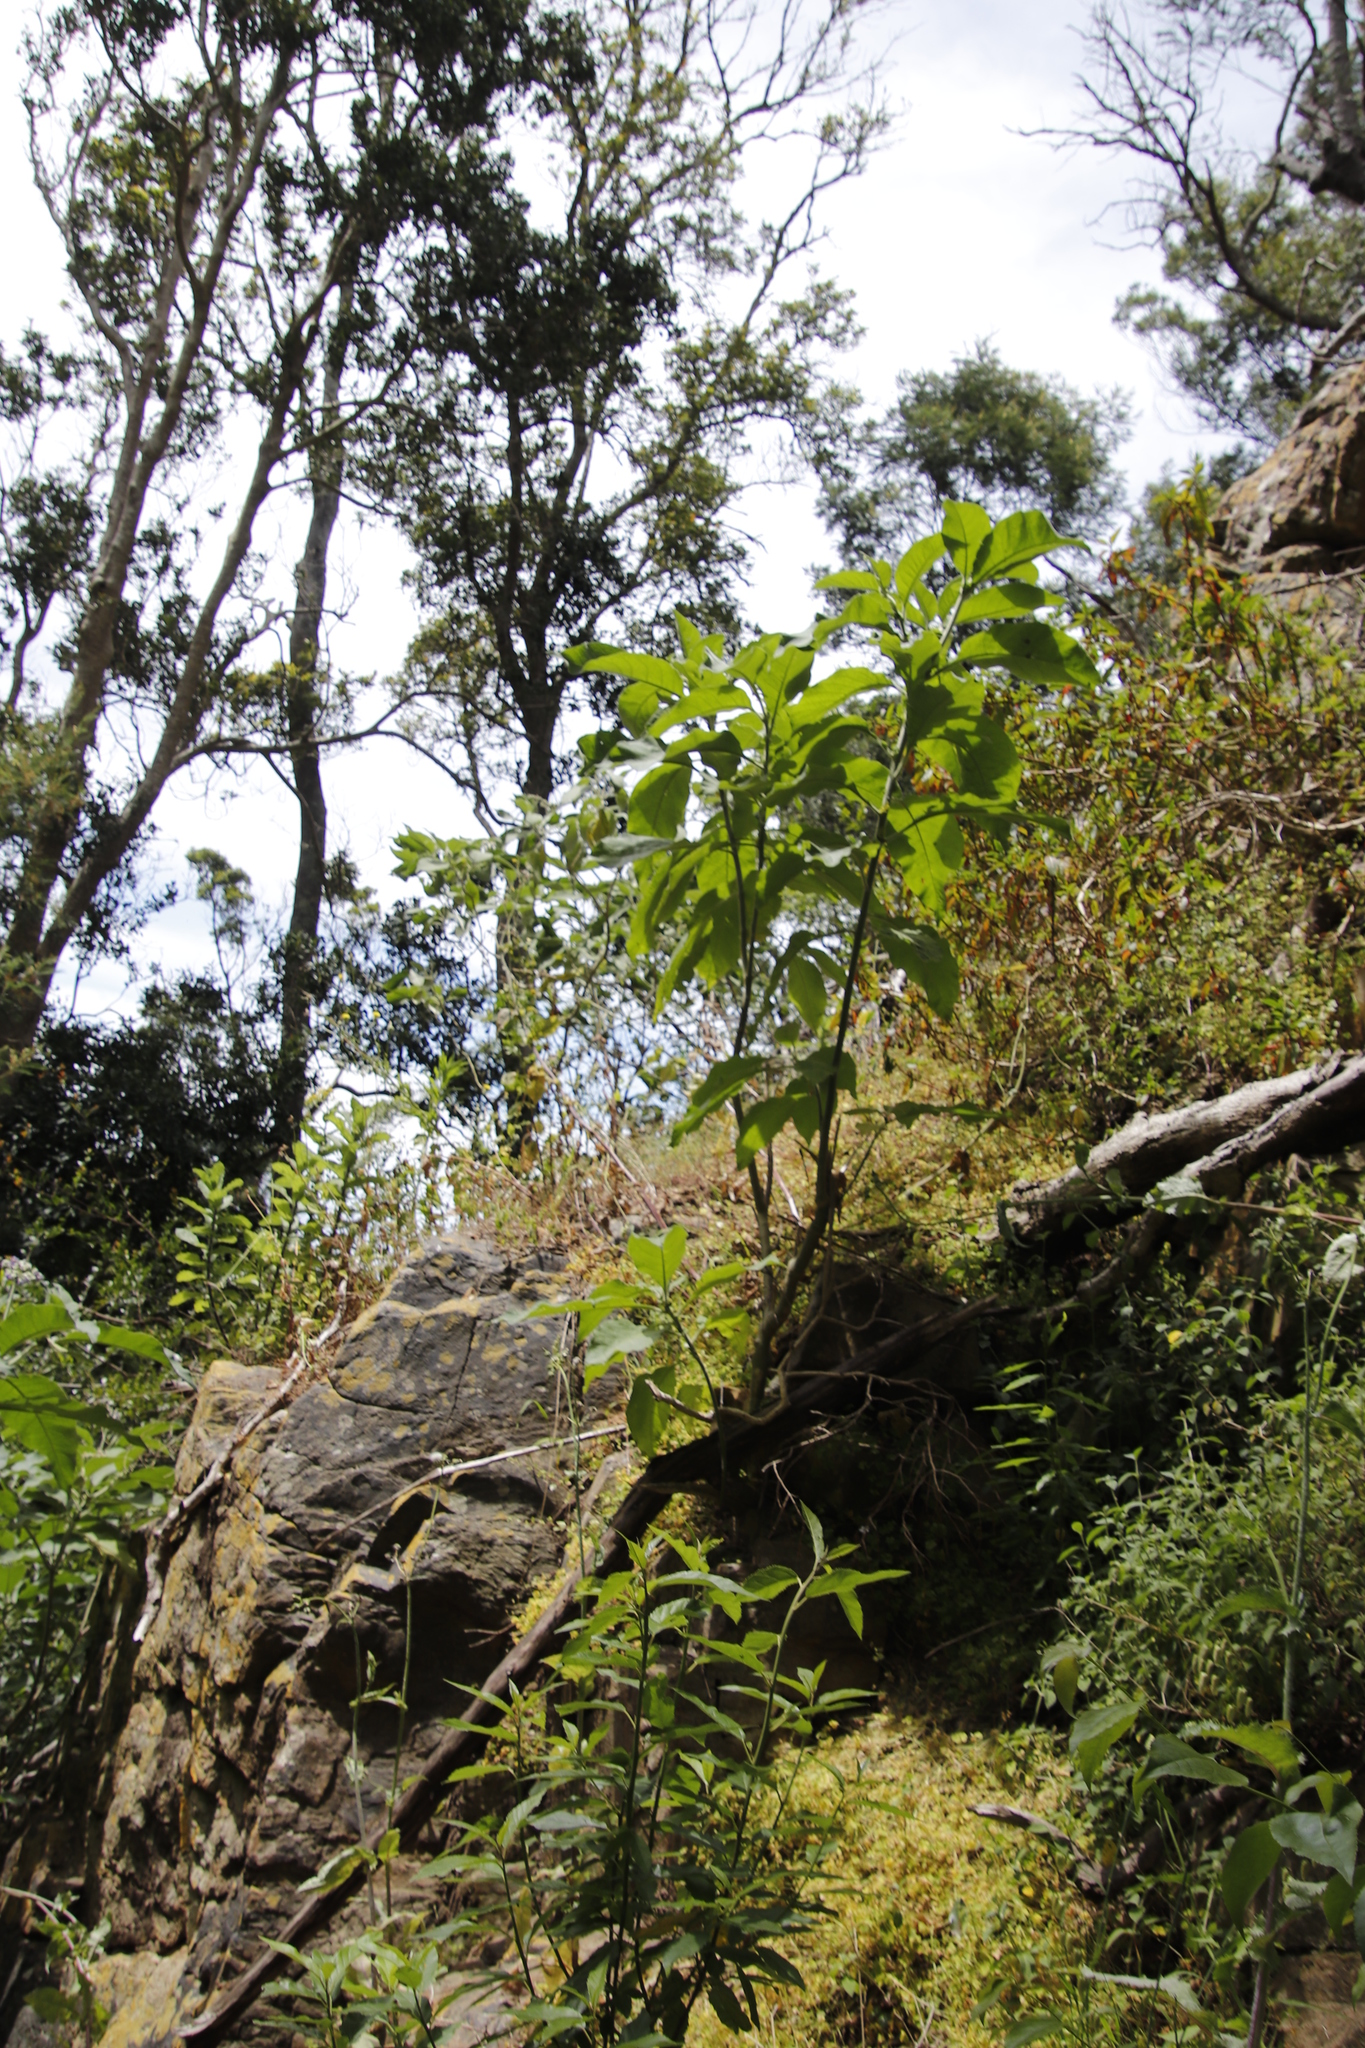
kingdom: Plantae
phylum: Tracheophyta
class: Magnoliopsida
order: Solanales
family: Solanaceae
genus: Solanum
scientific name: Solanum mauritianum
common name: Earleaf nightshade
